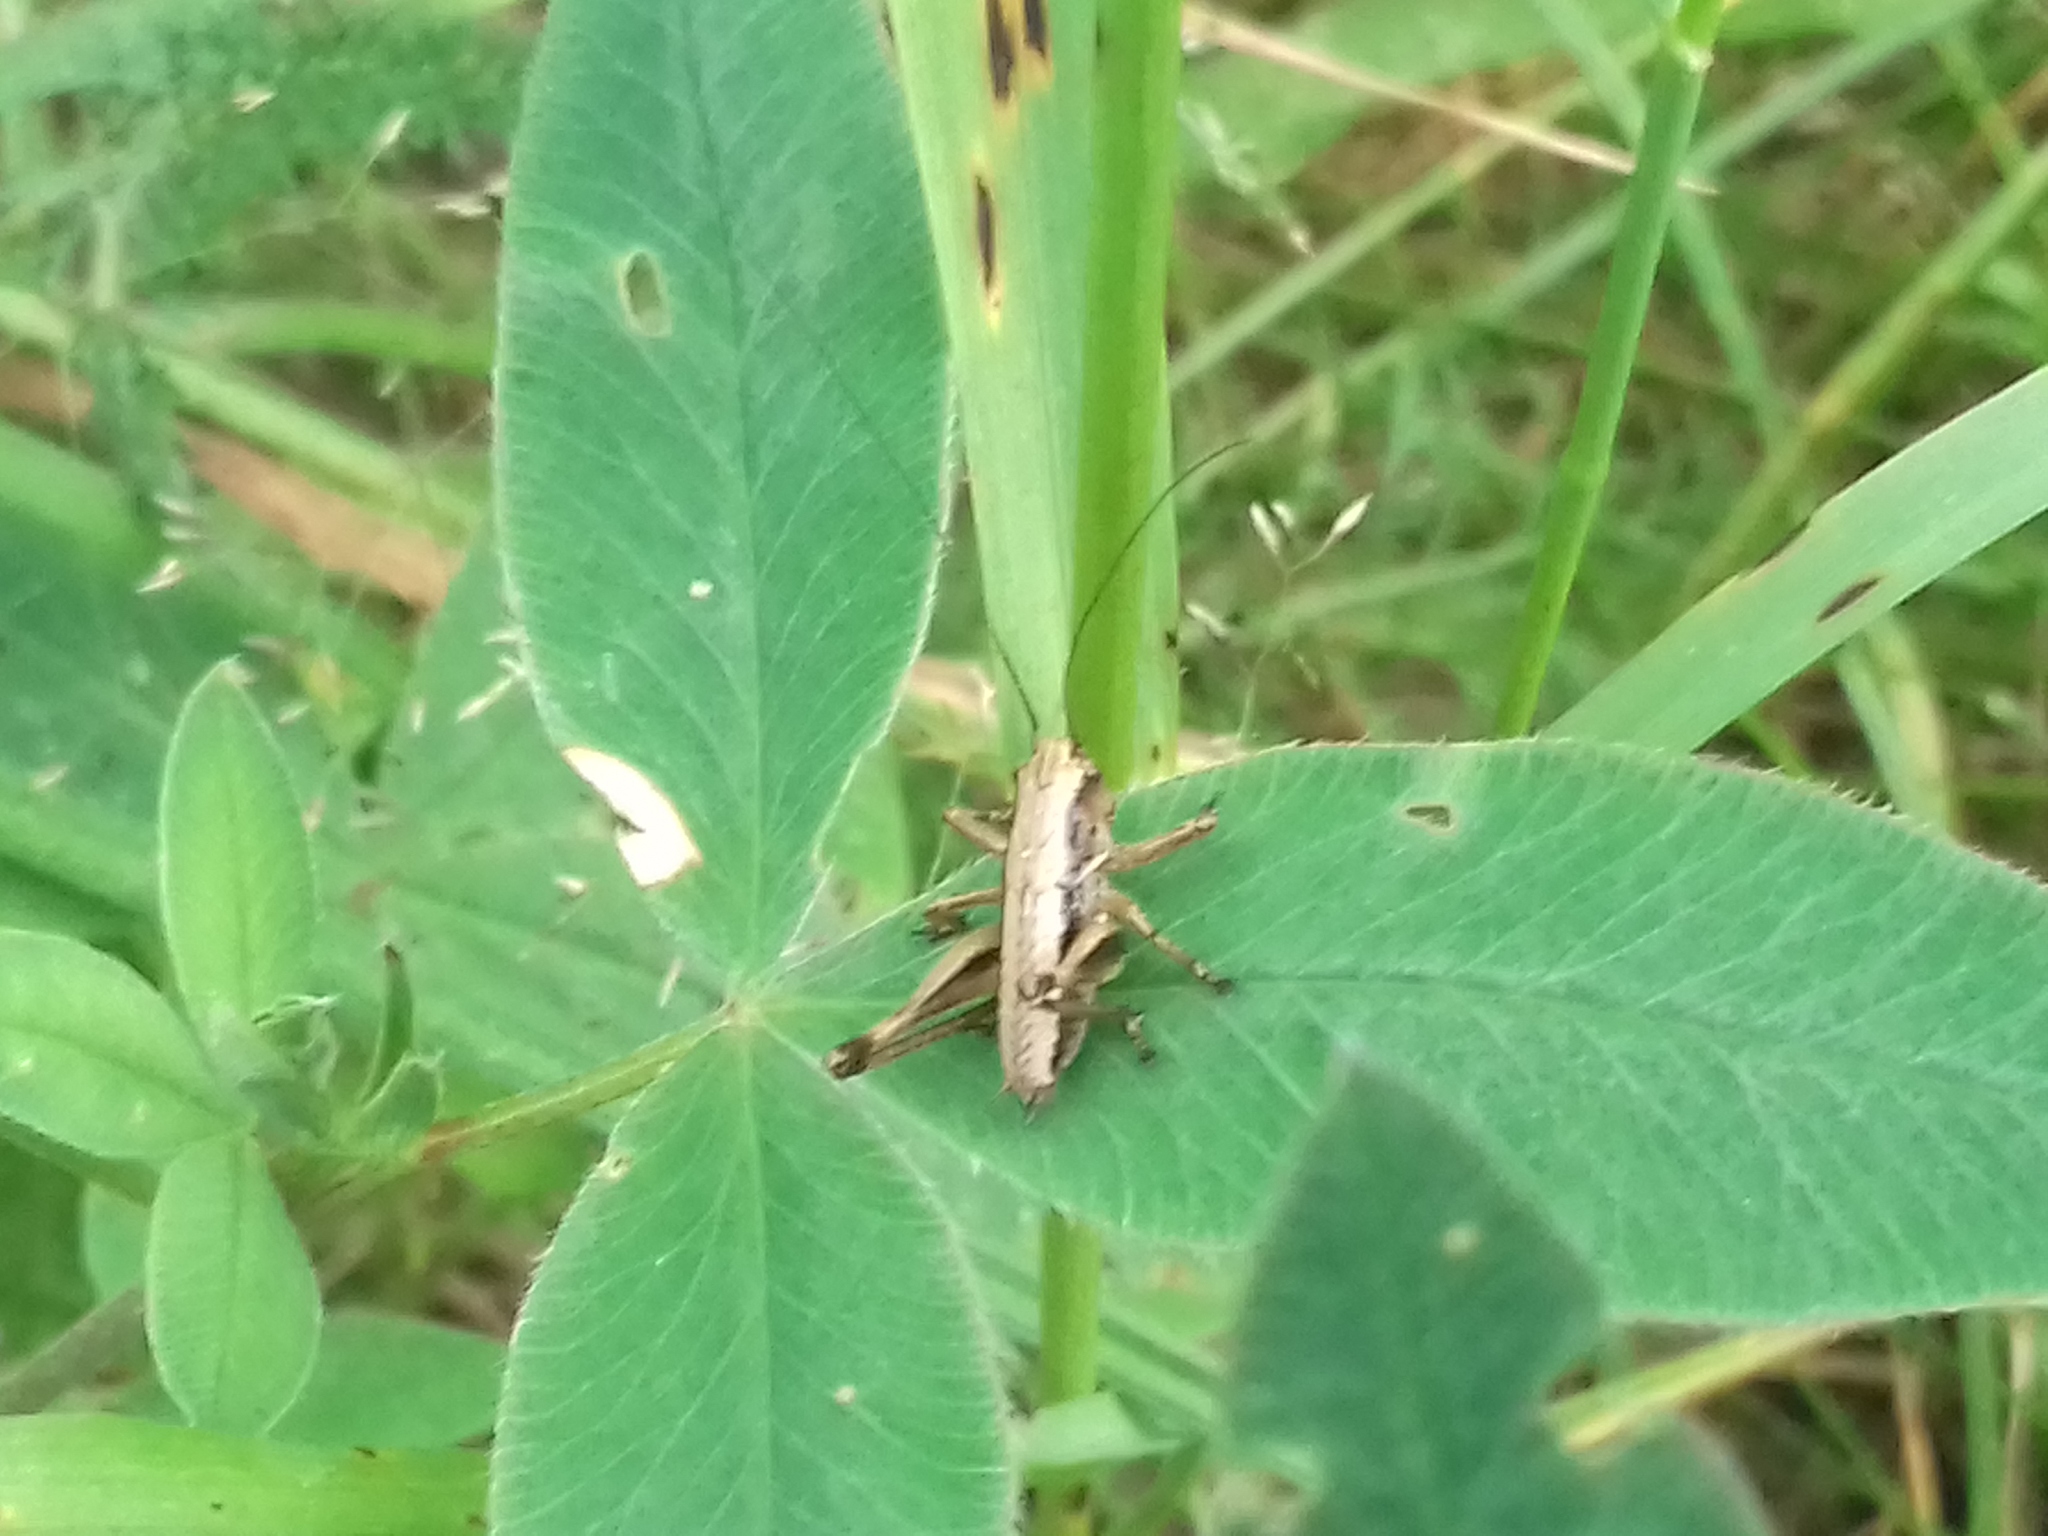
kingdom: Animalia
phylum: Arthropoda
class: Insecta
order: Orthoptera
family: Tettigoniidae
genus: Pholidoptera
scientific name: Pholidoptera griseoaptera
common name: Dark bush-cricket
